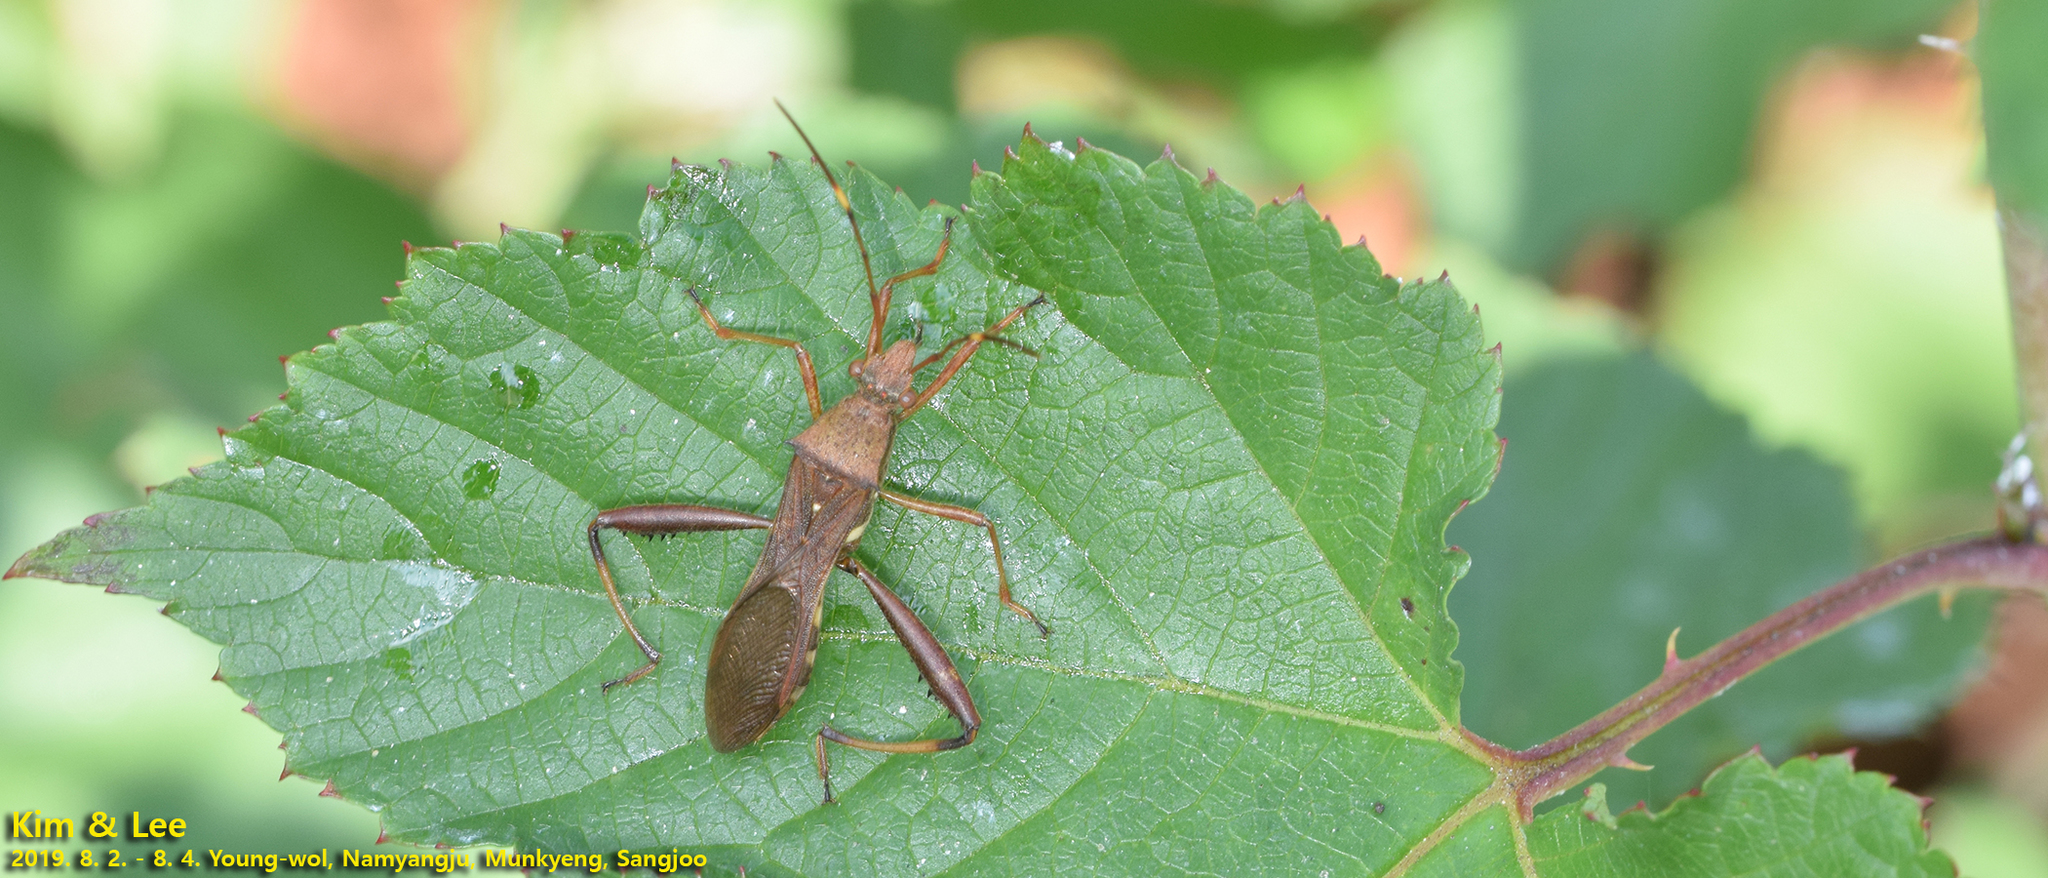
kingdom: Animalia
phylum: Arthropoda
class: Insecta
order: Hemiptera
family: Alydidae
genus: Riptortus
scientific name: Riptortus pedestris
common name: Bean bug
